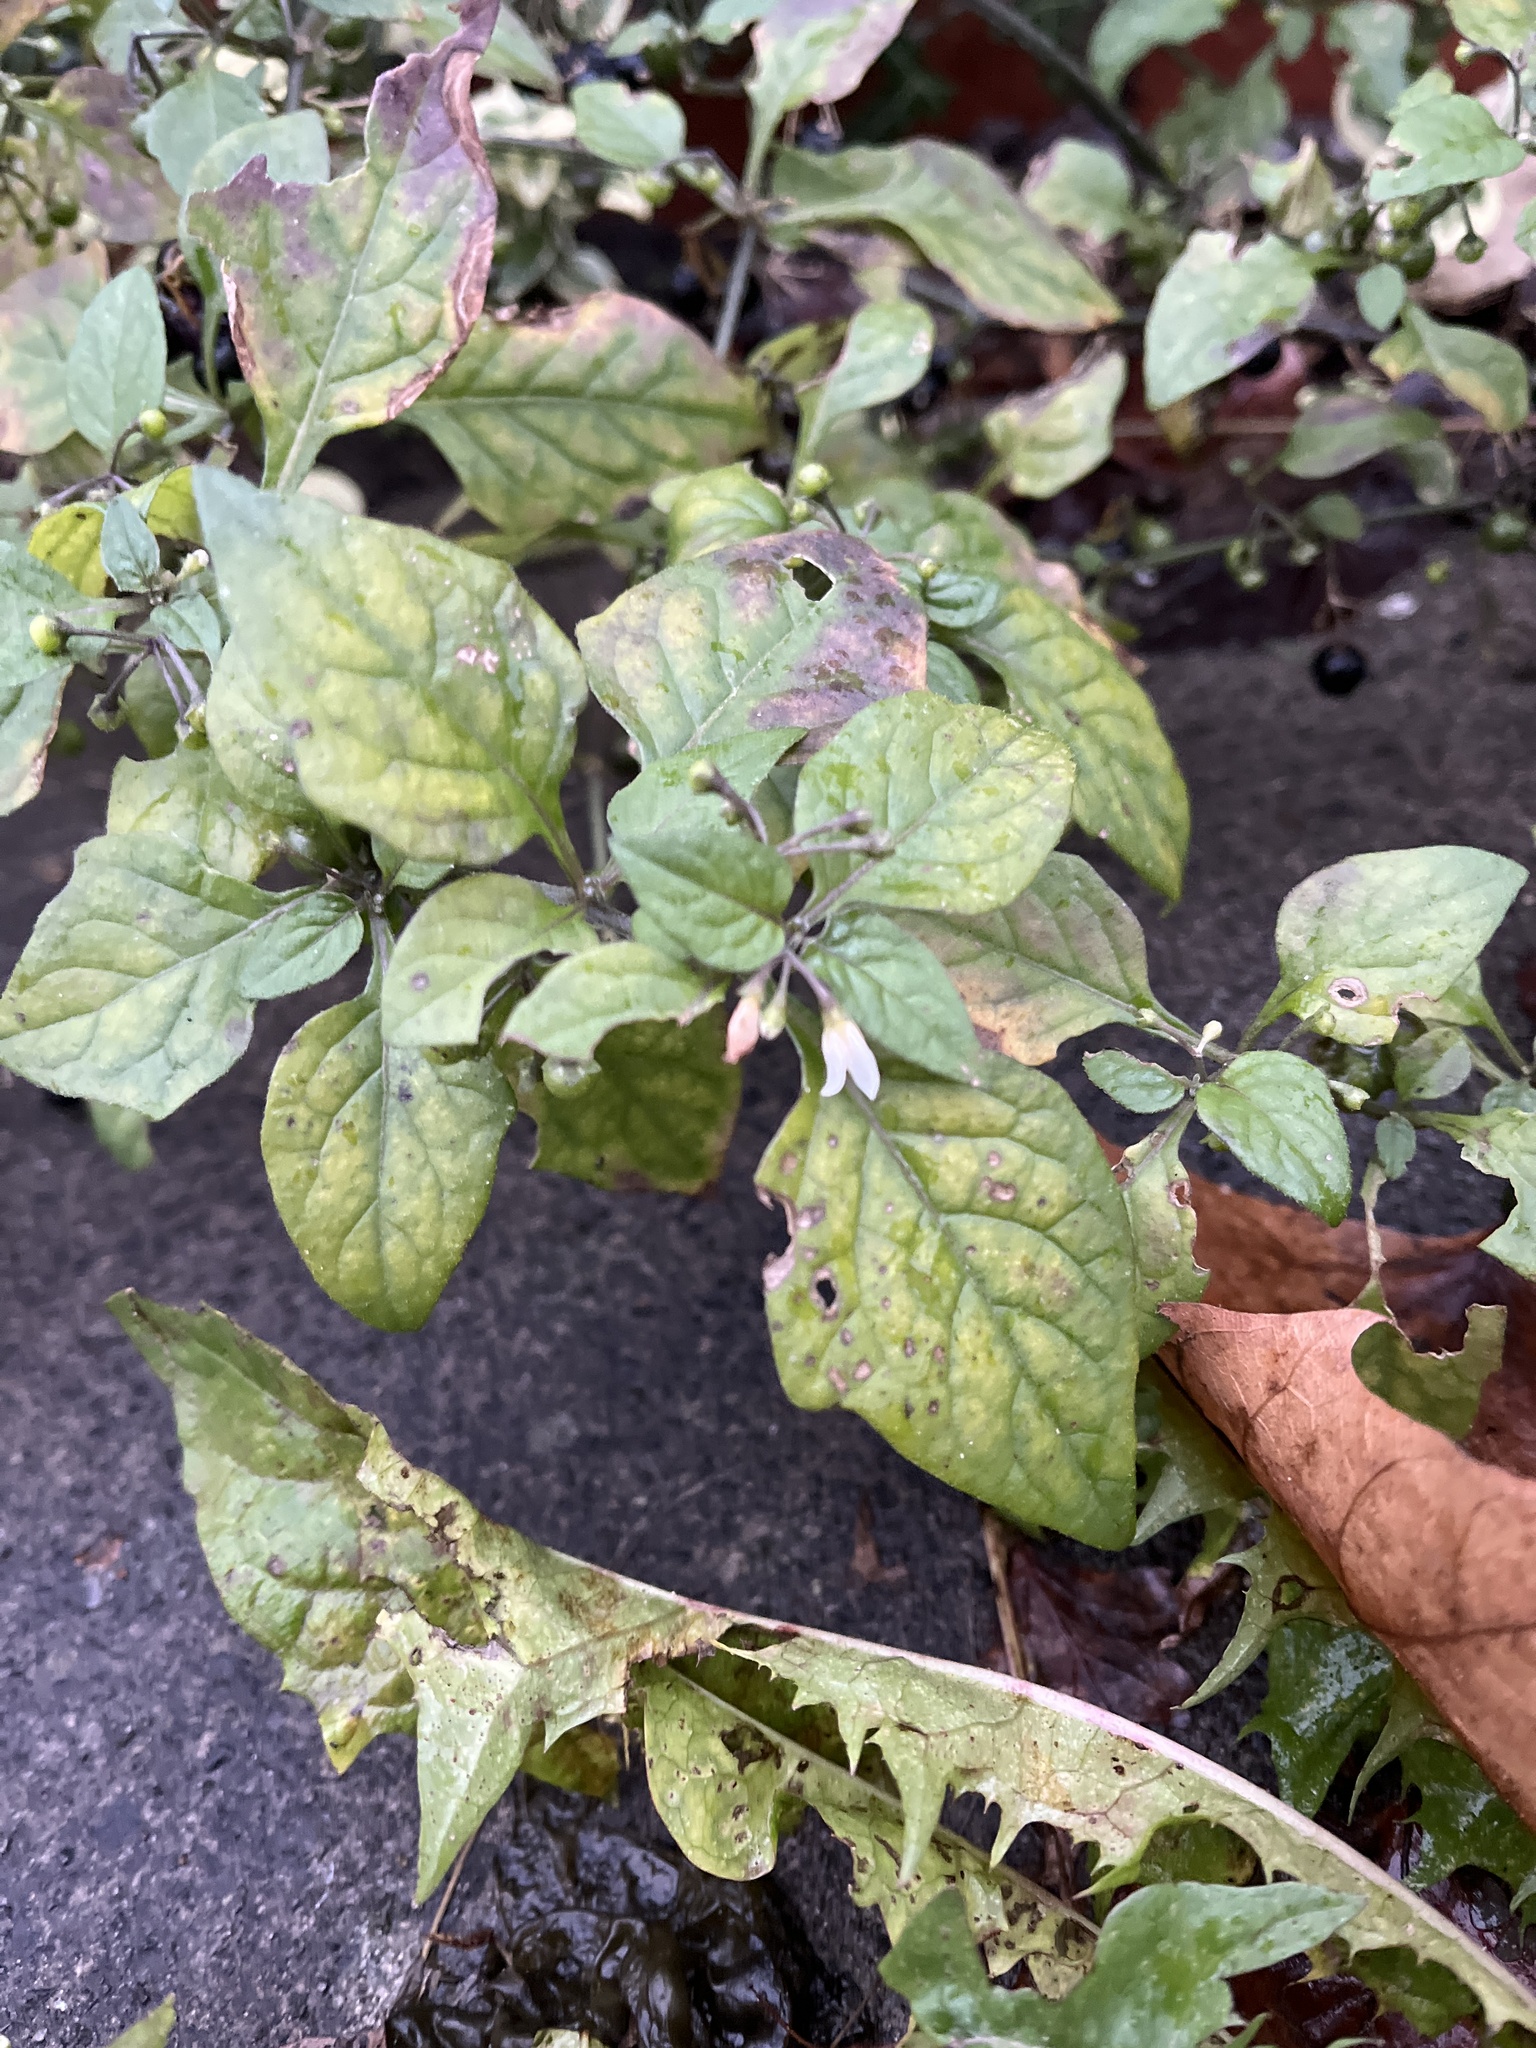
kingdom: Plantae
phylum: Tracheophyta
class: Magnoliopsida
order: Solanales
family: Solanaceae
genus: Solanum
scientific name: Solanum nigrum
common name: Black nightshade
